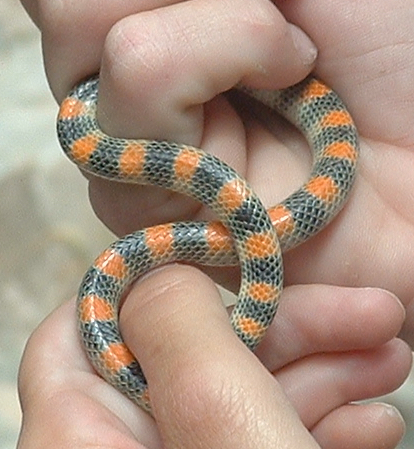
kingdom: Animalia
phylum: Chordata
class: Squamata
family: Colubridae
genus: Sonora
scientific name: Sonora semiannulata
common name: Ground snake
